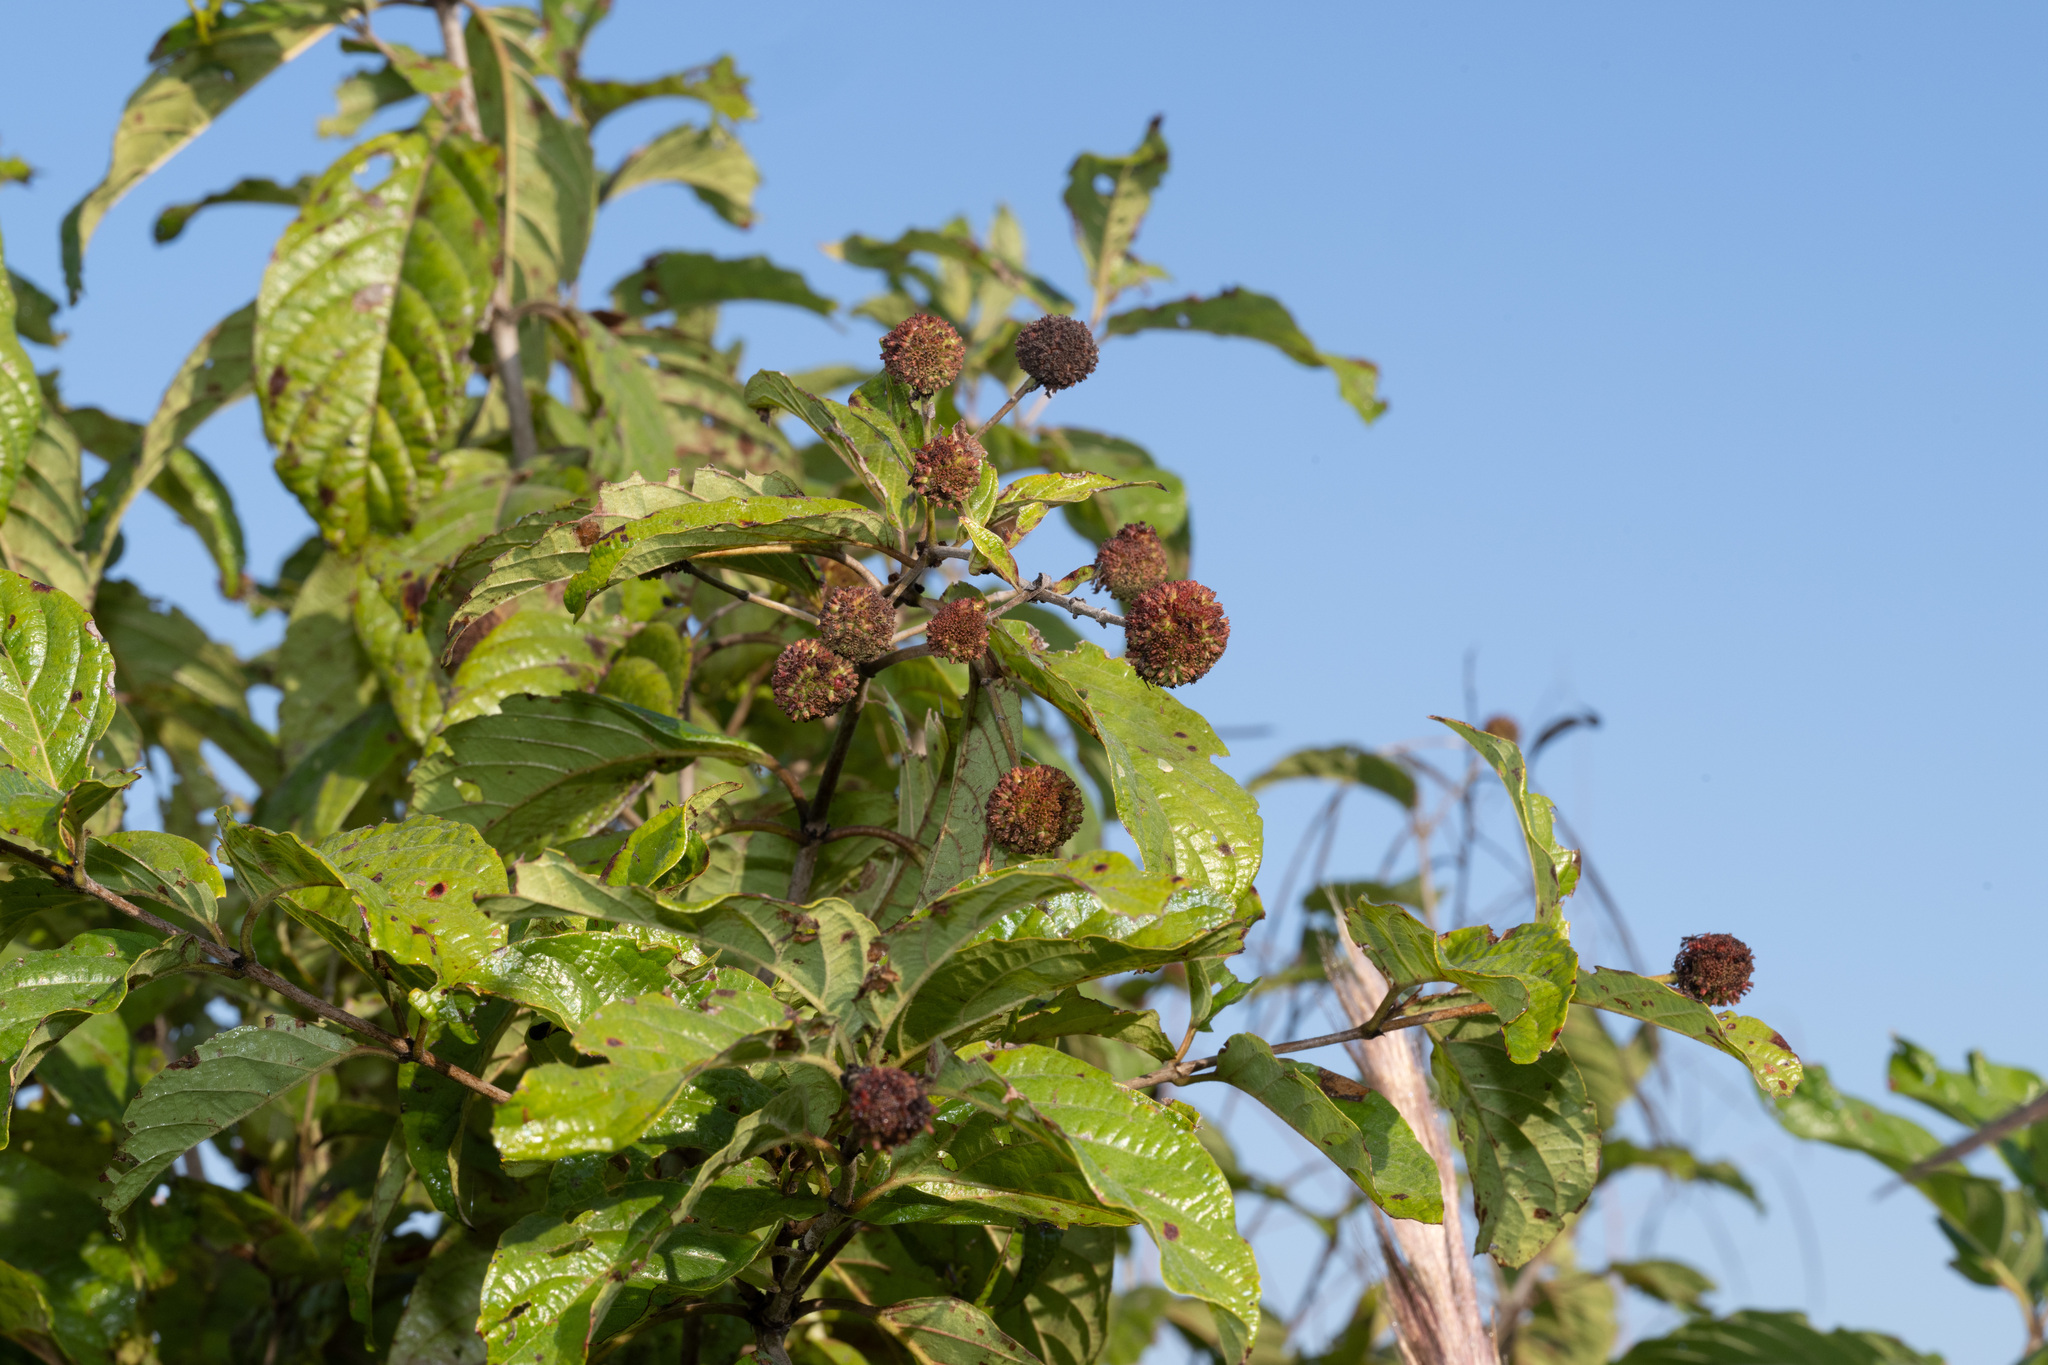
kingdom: Plantae
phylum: Tracheophyta
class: Magnoliopsida
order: Gentianales
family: Rubiaceae
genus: Cephalanthus
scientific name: Cephalanthus occidentalis
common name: Button-willow
